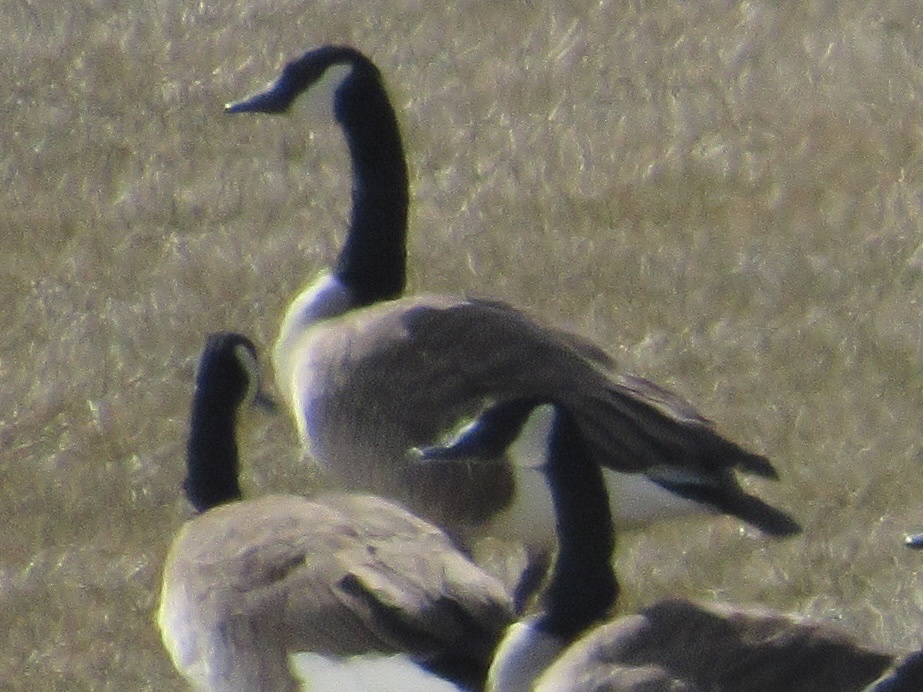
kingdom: Animalia
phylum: Chordata
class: Aves
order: Anseriformes
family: Anatidae
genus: Branta
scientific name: Branta canadensis
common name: Canada goose
